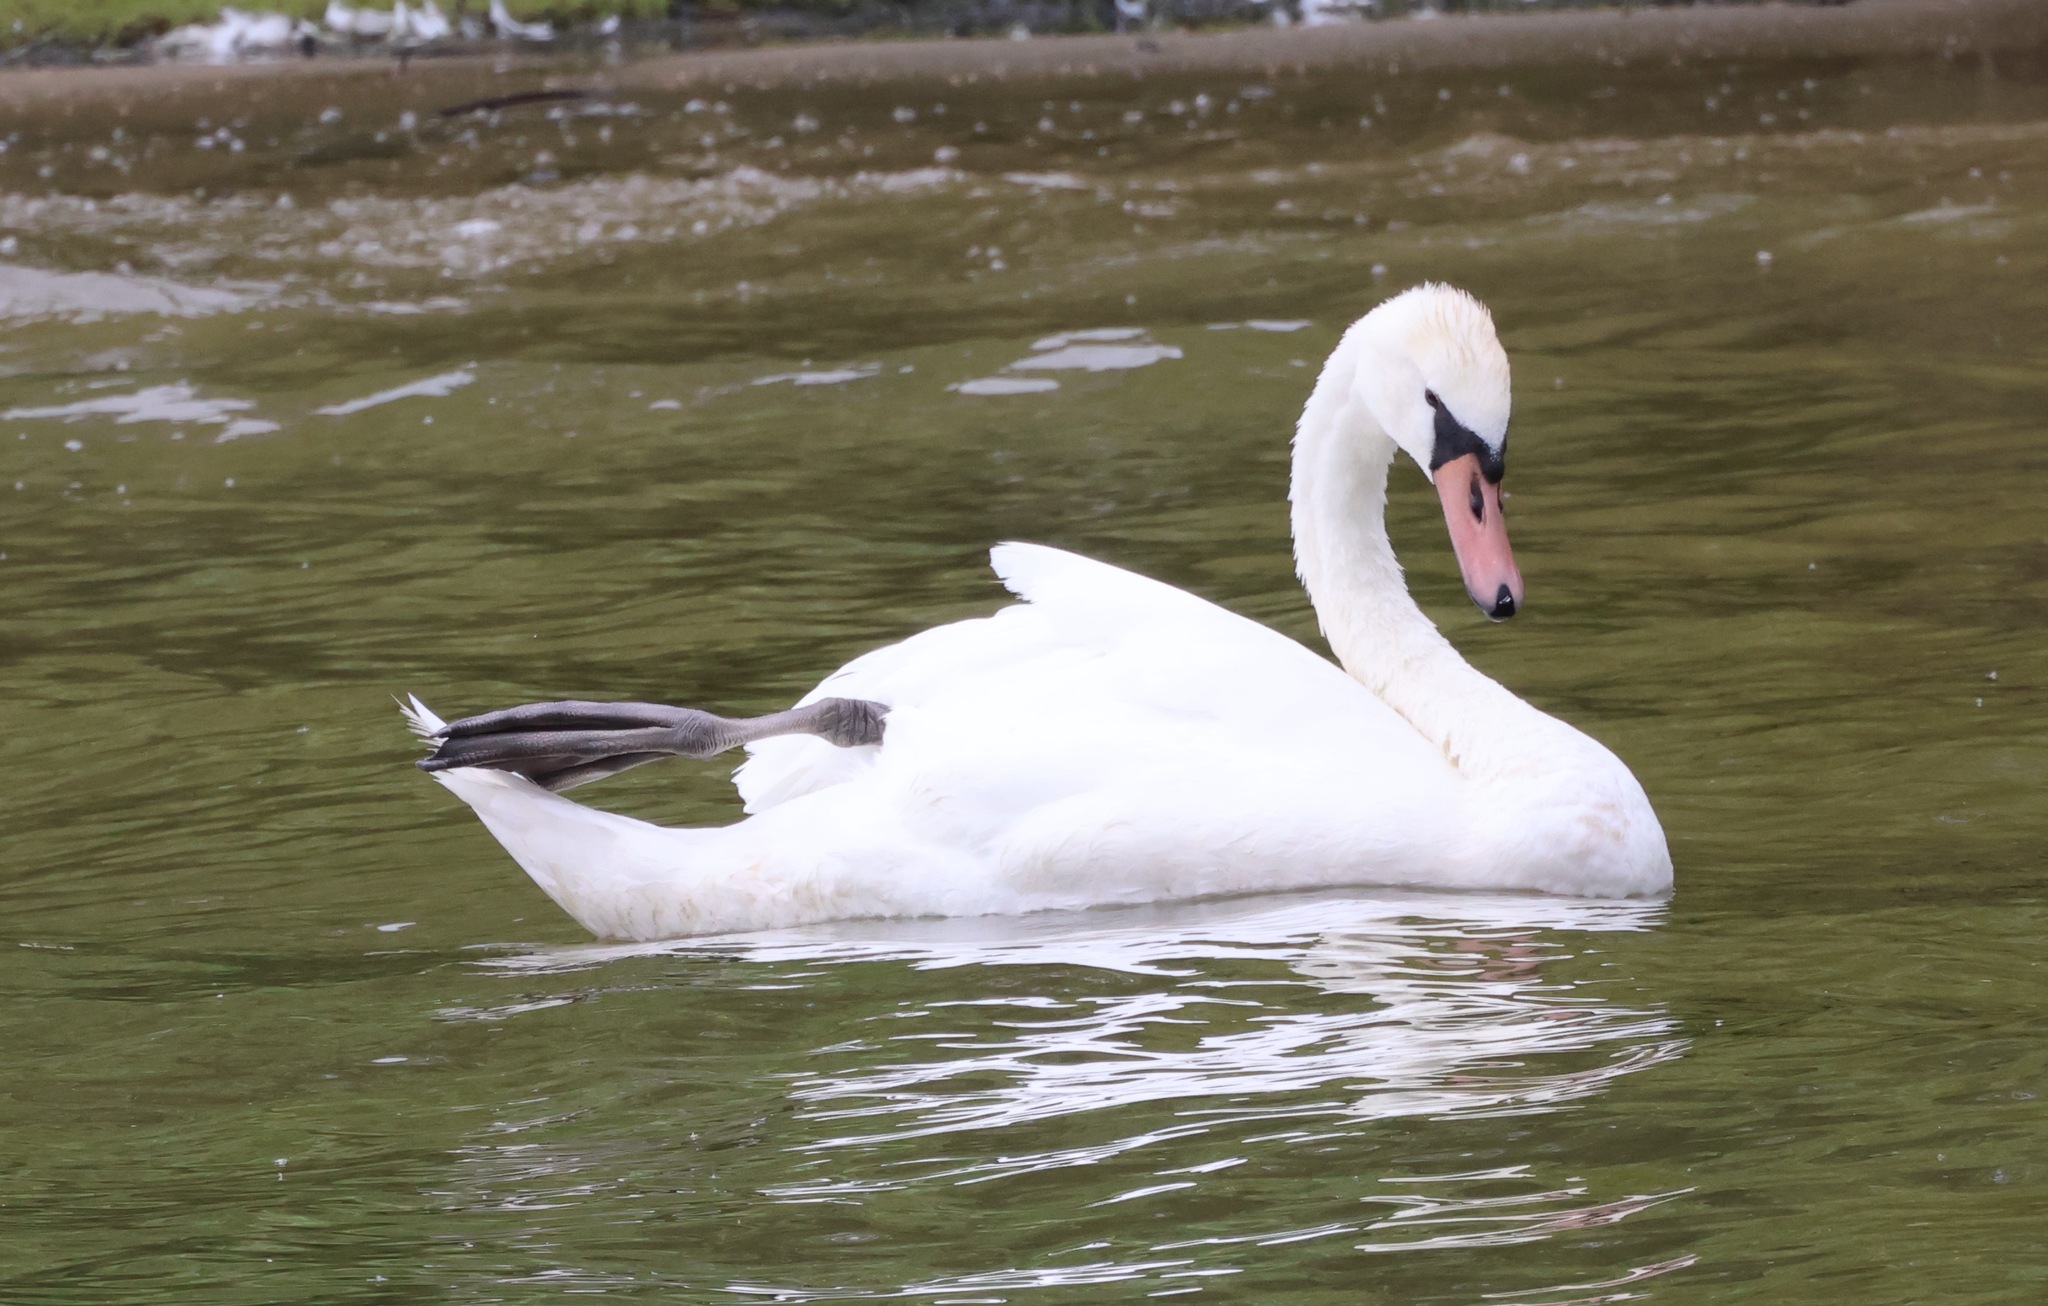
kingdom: Animalia
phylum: Chordata
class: Aves
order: Anseriformes
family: Anatidae
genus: Cygnus
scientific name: Cygnus olor
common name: Mute swan
